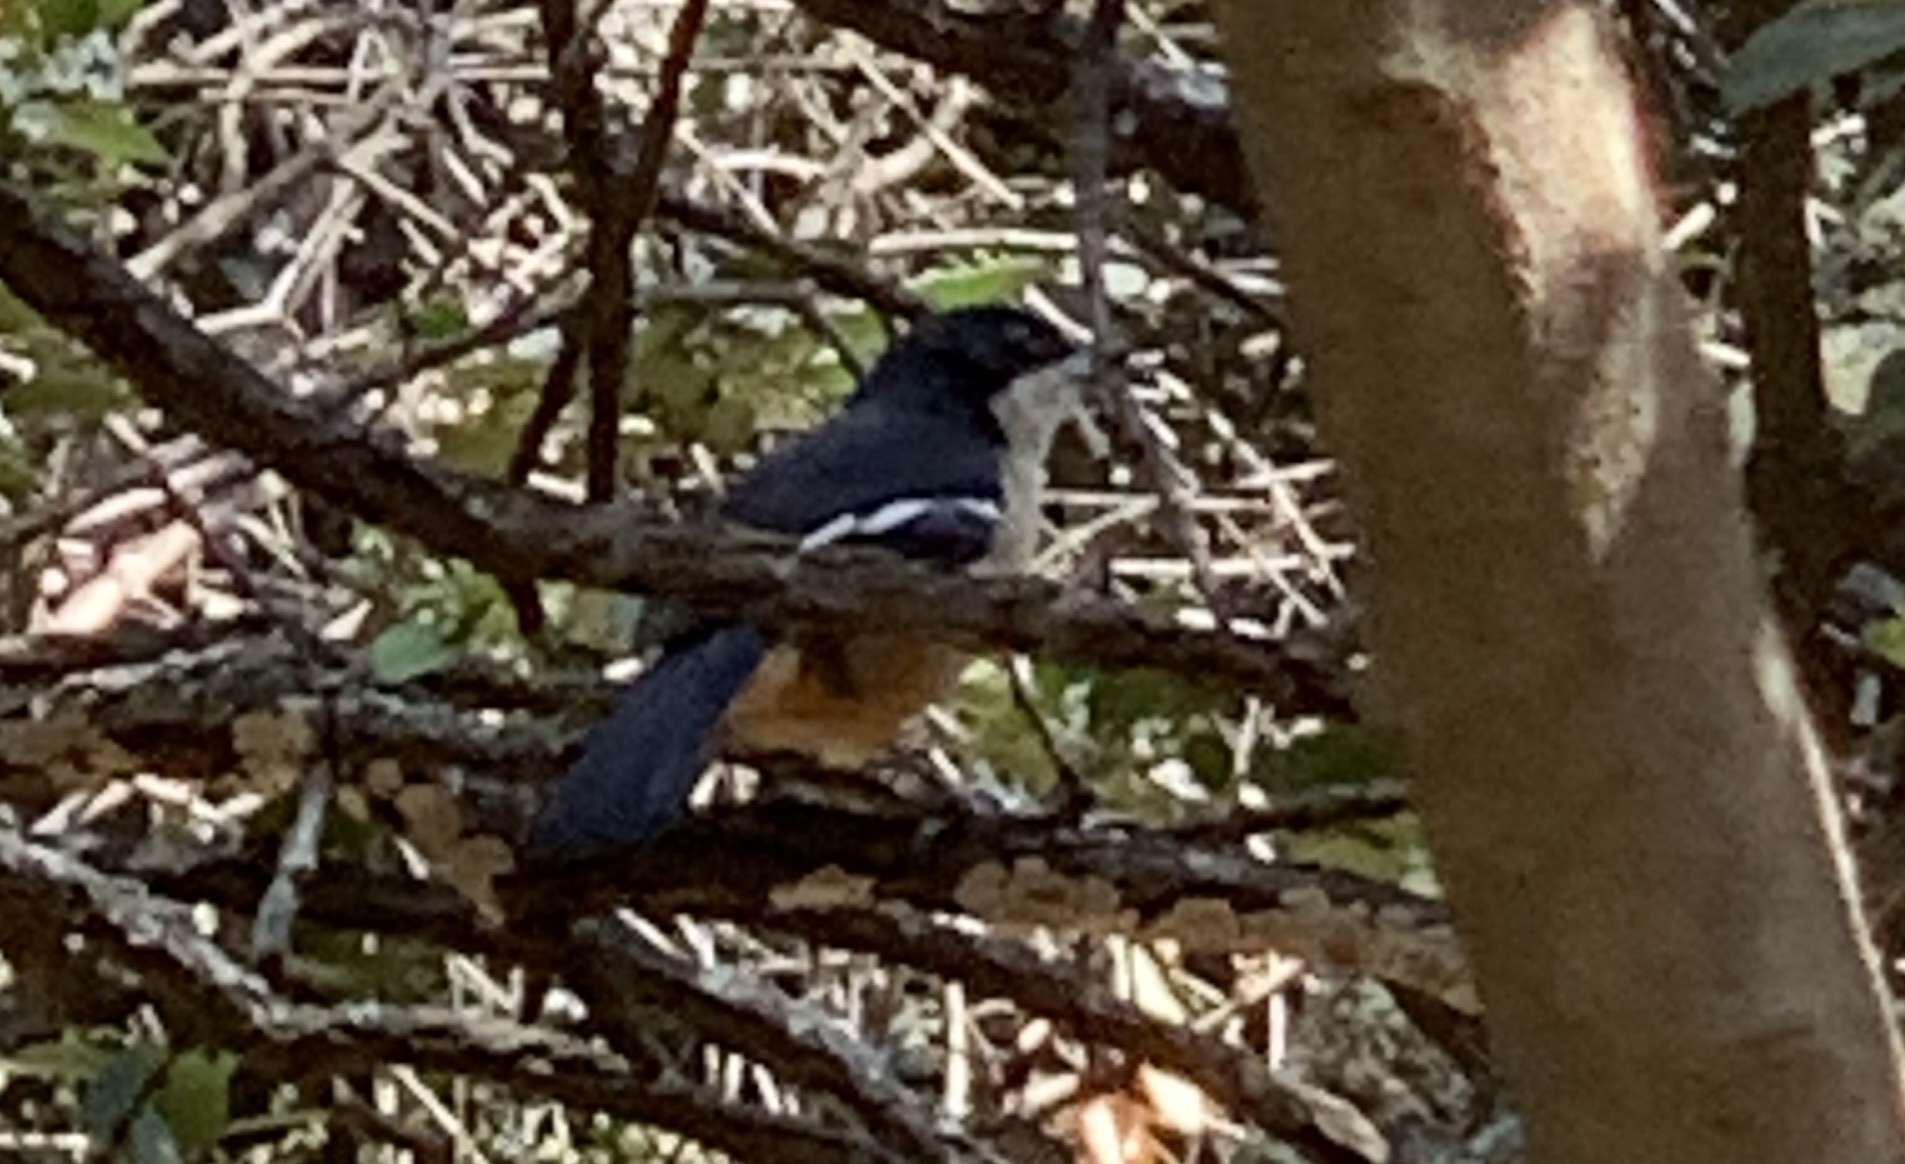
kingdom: Animalia
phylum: Chordata
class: Aves
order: Passeriformes
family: Malaconotidae
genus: Laniarius
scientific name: Laniarius ferrugineus
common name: Southern boubou
